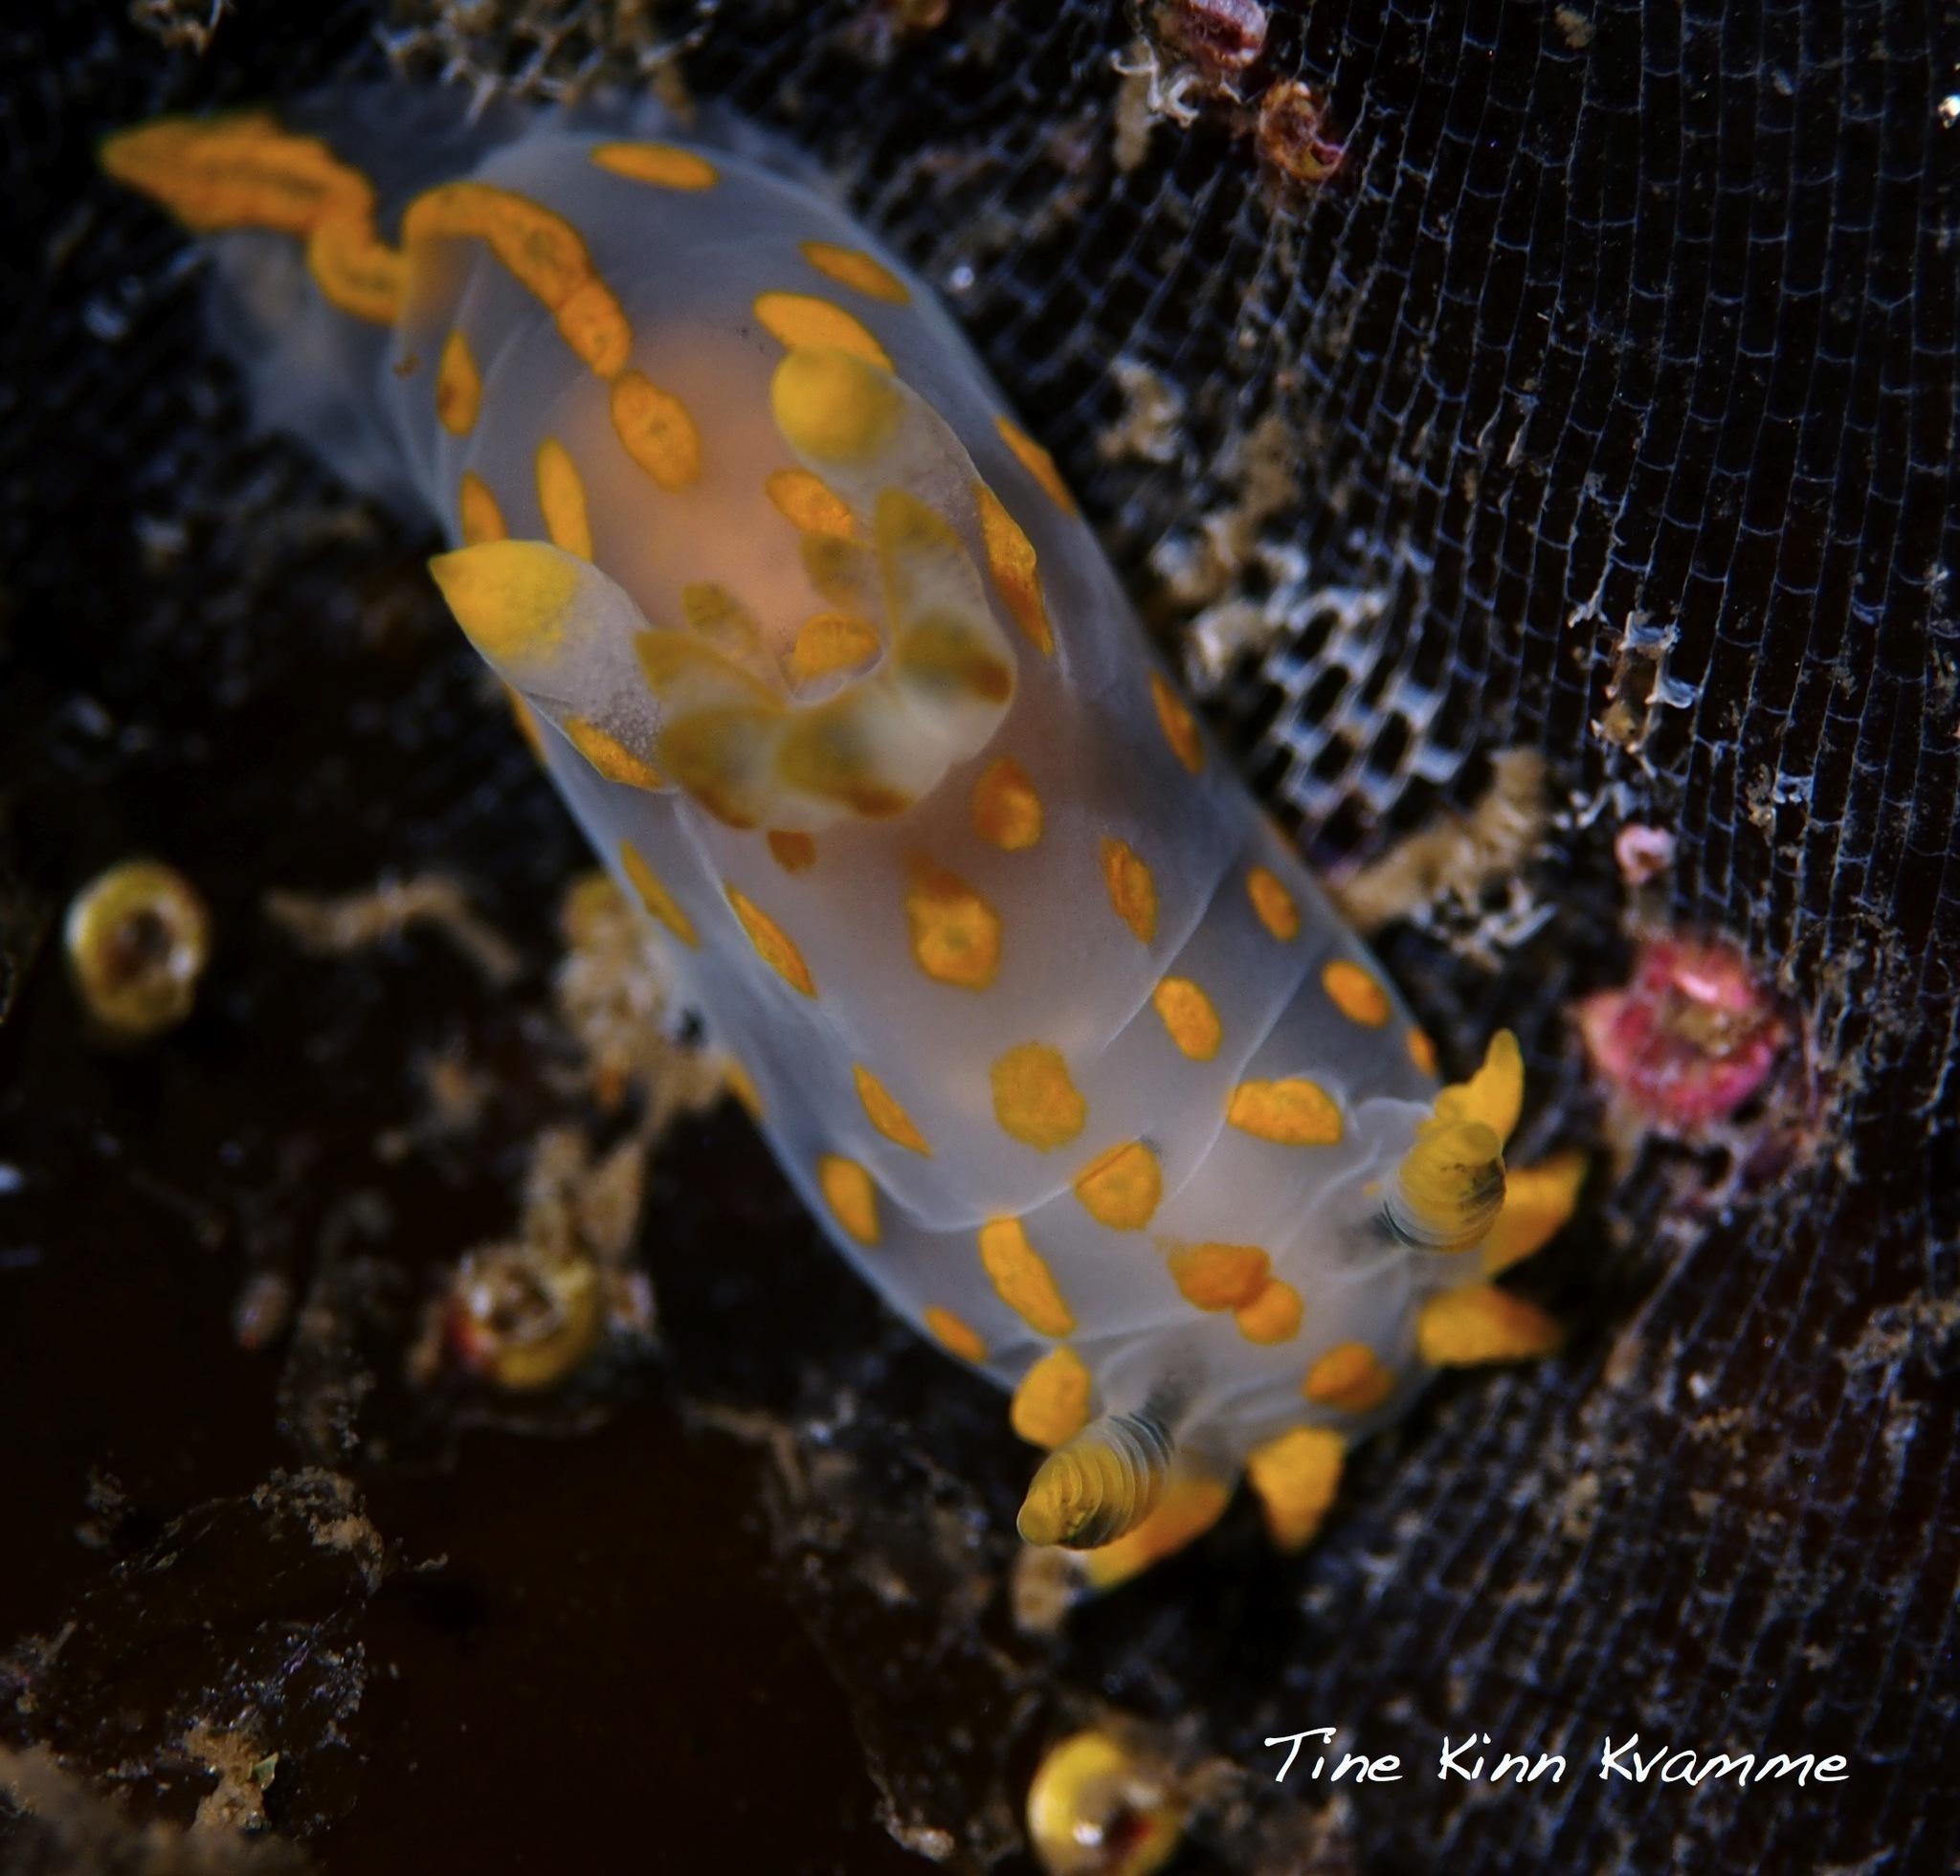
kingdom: Animalia
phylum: Mollusca
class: Gastropoda
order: Nudibranchia
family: Polyceridae
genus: Polycera
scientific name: Polycera quadrilineata
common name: Four-striped polycera
